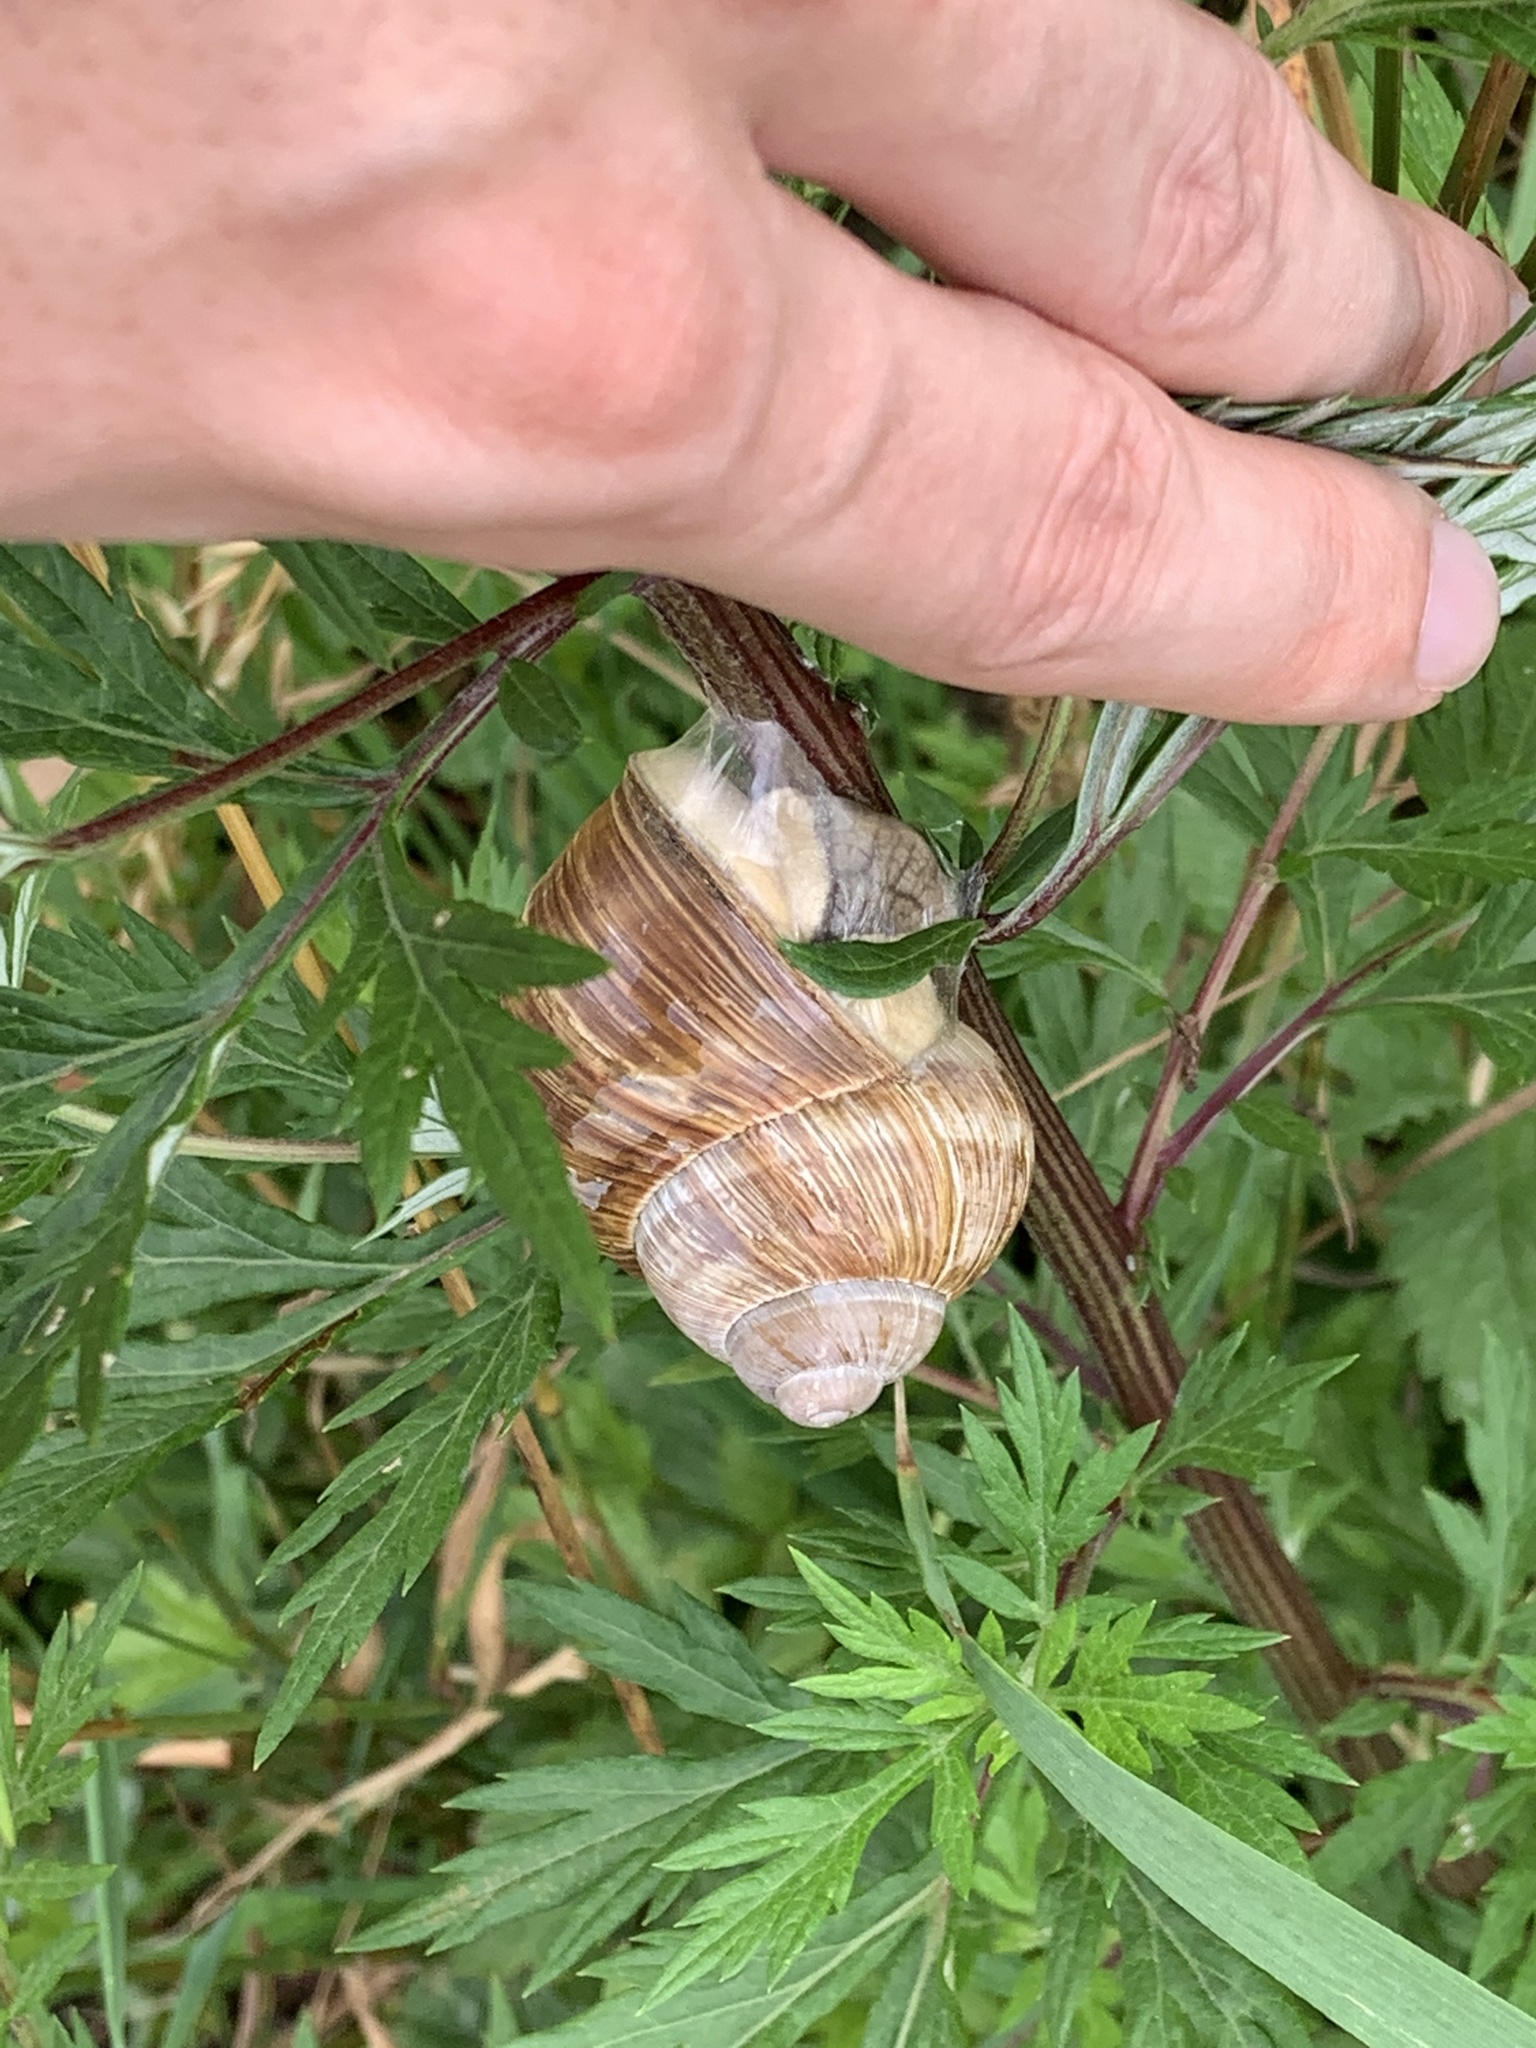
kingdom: Animalia
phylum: Mollusca
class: Gastropoda
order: Stylommatophora
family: Helicidae
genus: Helix
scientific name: Helix pomatia
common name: Roman snail
